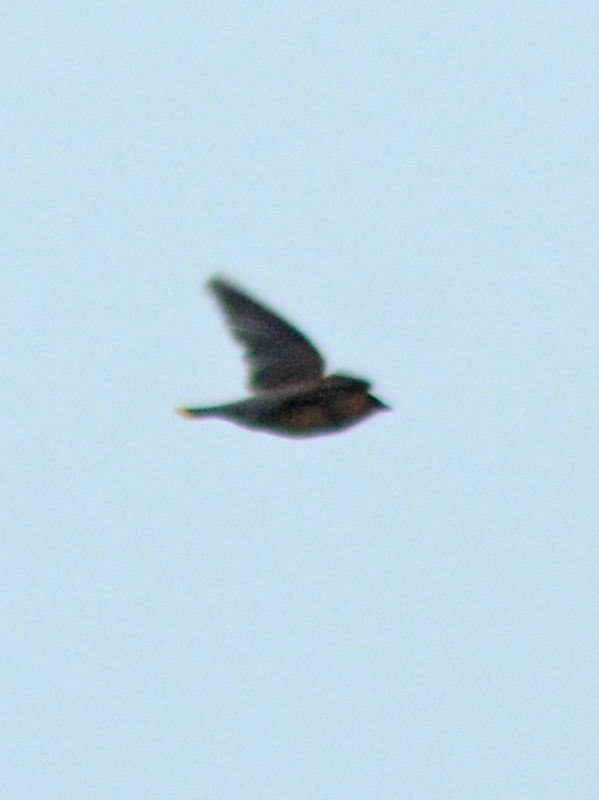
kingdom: Animalia
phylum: Chordata
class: Aves
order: Passeriformes
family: Bombycillidae
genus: Bombycilla
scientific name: Bombycilla cedrorum
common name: Cedar waxwing
